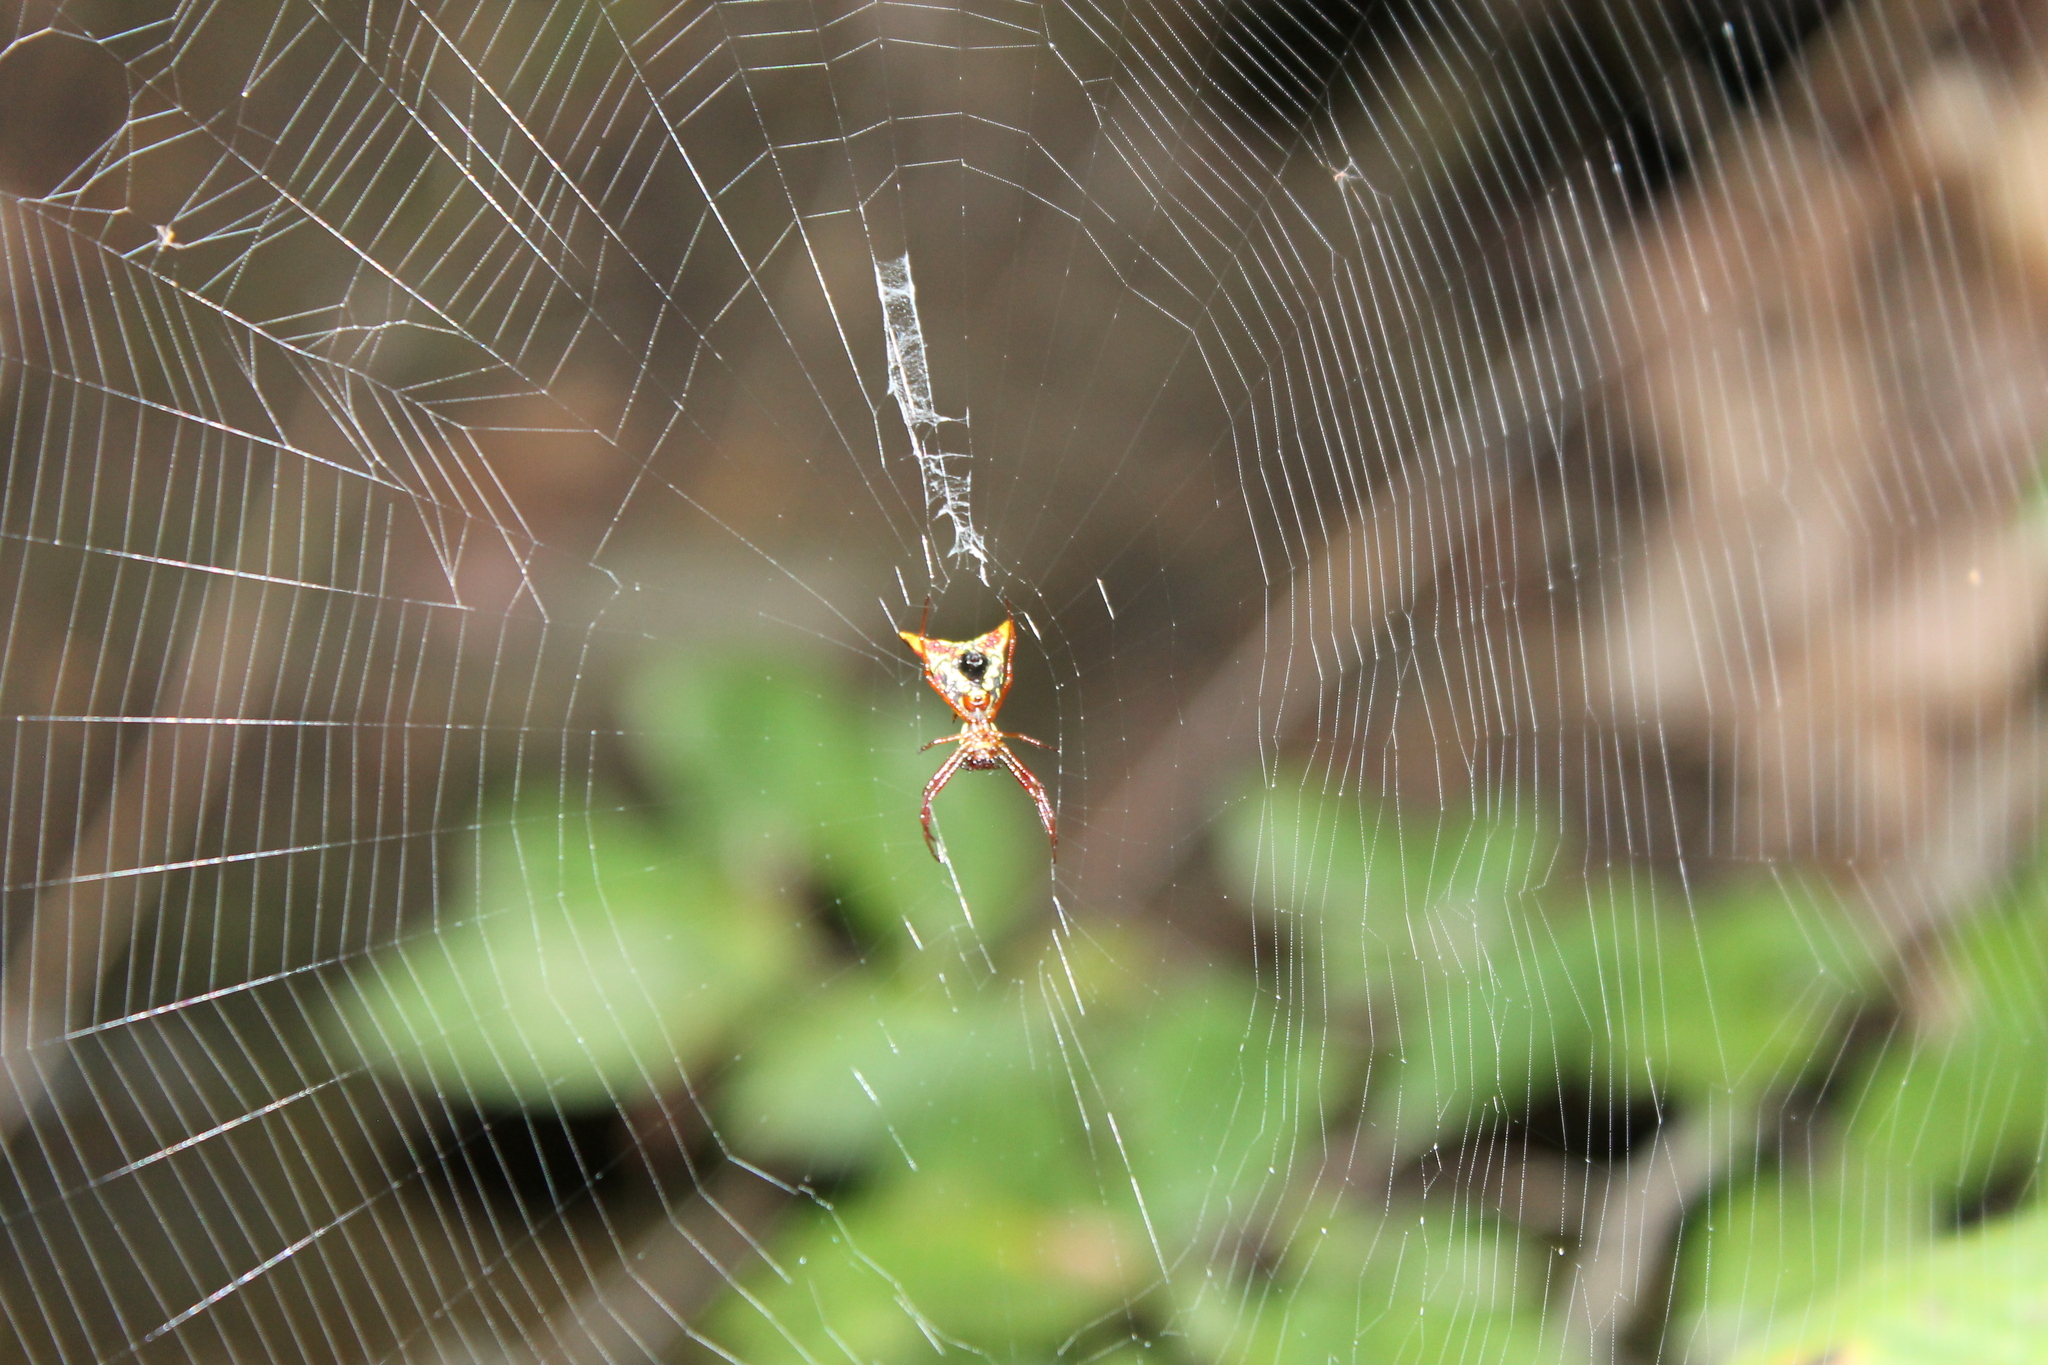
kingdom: Animalia
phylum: Arthropoda
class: Arachnida
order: Araneae
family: Araneidae
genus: Micrathena
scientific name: Micrathena sagittata
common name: Orb weavers
